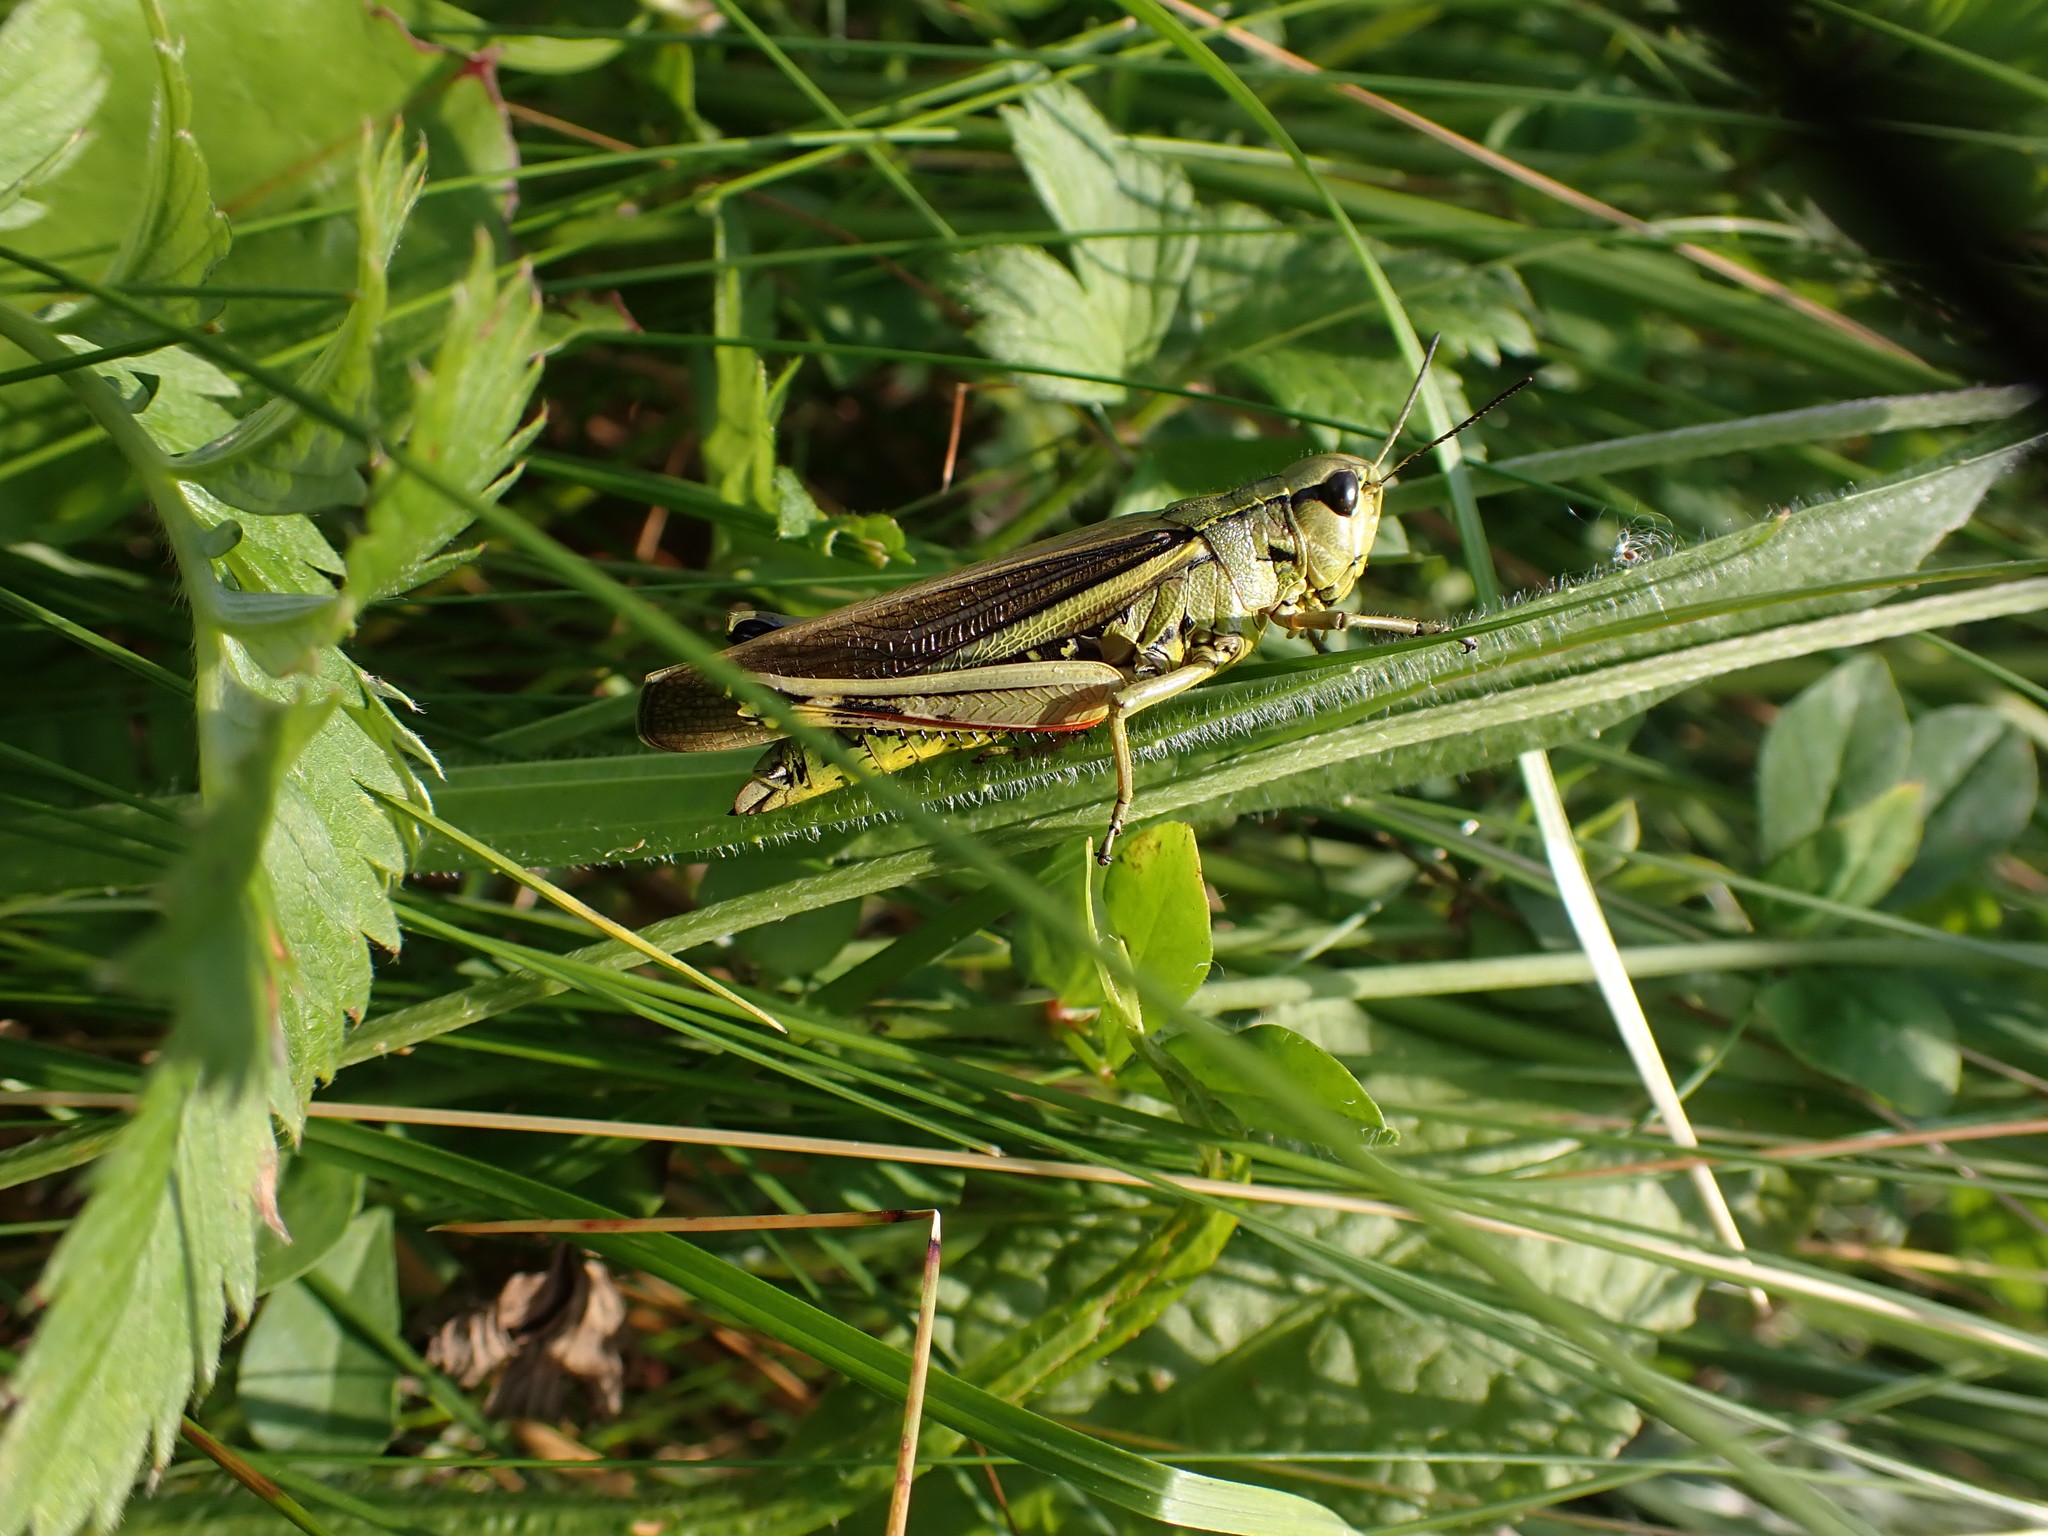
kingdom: Animalia
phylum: Arthropoda
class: Insecta
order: Orthoptera
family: Acrididae
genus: Stethophyma
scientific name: Stethophyma grossum
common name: Large marsh grasshopper
